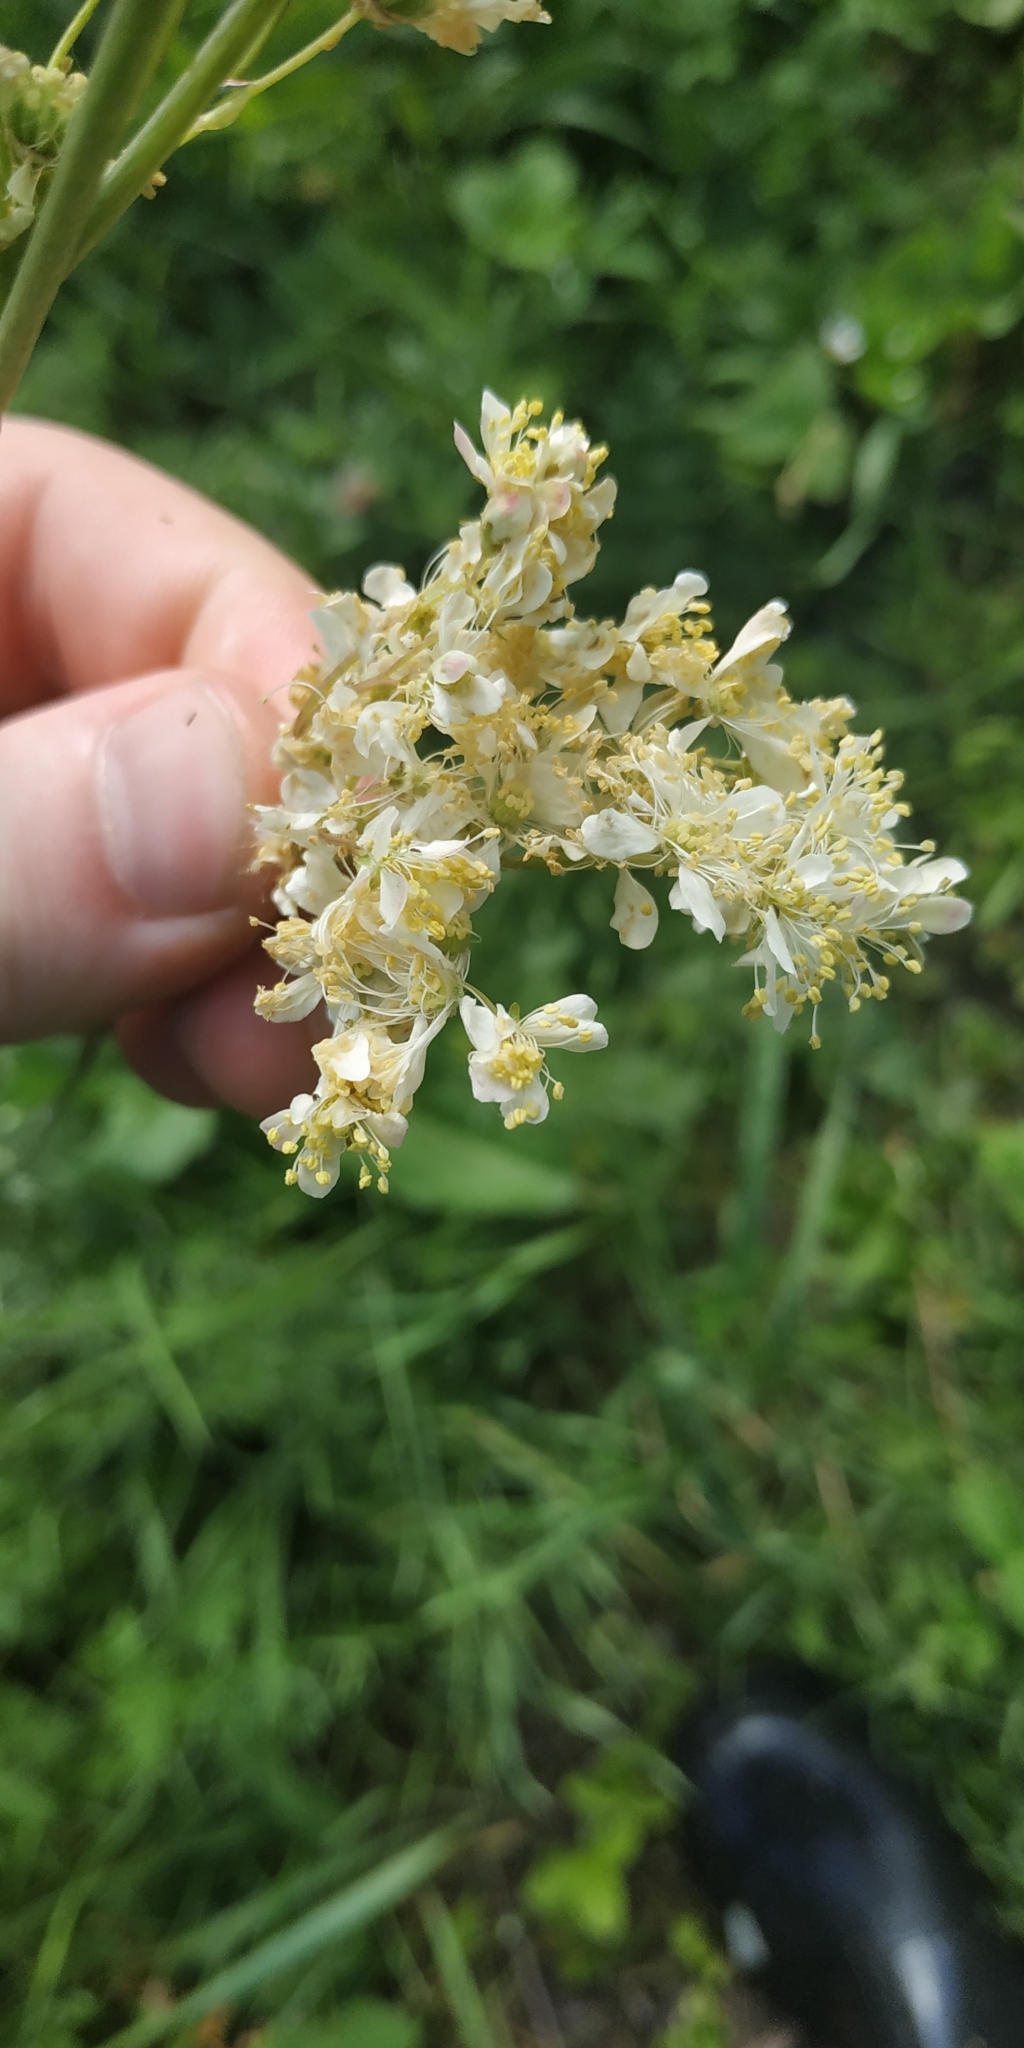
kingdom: Plantae
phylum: Tracheophyta
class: Magnoliopsida
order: Rosales
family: Rosaceae
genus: Filipendula
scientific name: Filipendula vulgaris
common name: Dropwort
